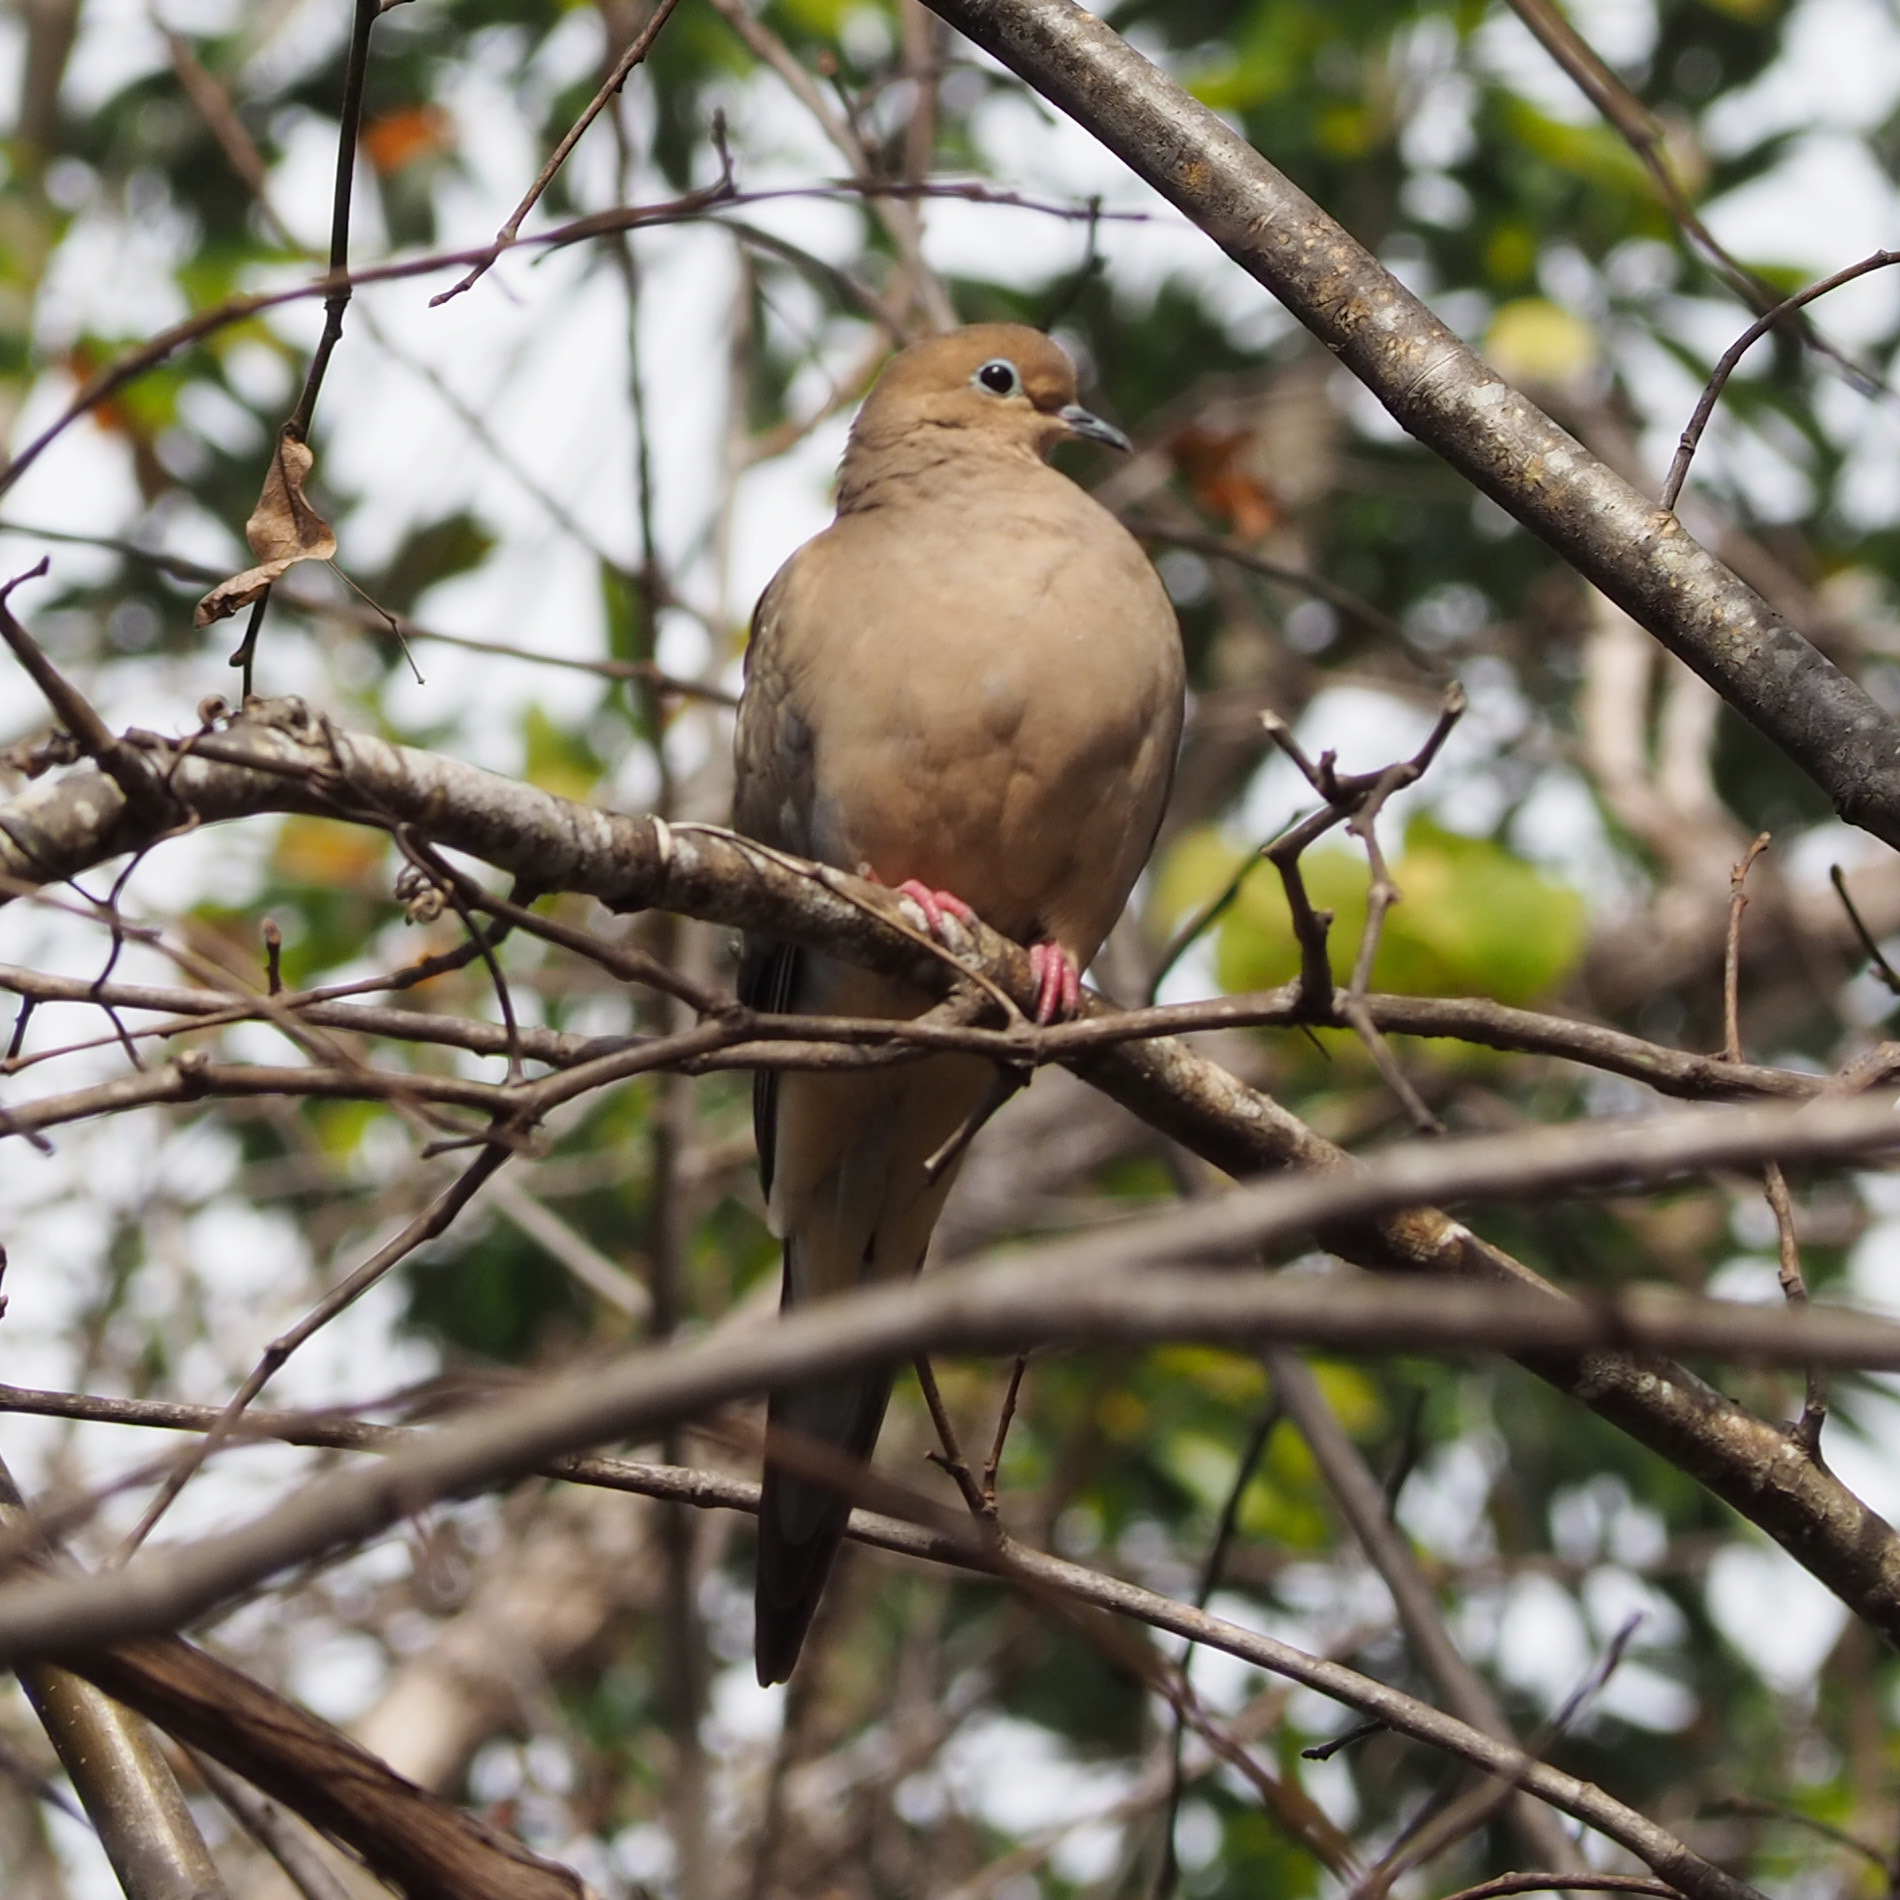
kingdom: Animalia
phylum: Chordata
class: Aves
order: Columbiformes
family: Columbidae
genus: Zenaida
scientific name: Zenaida macroura
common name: Mourning dove
